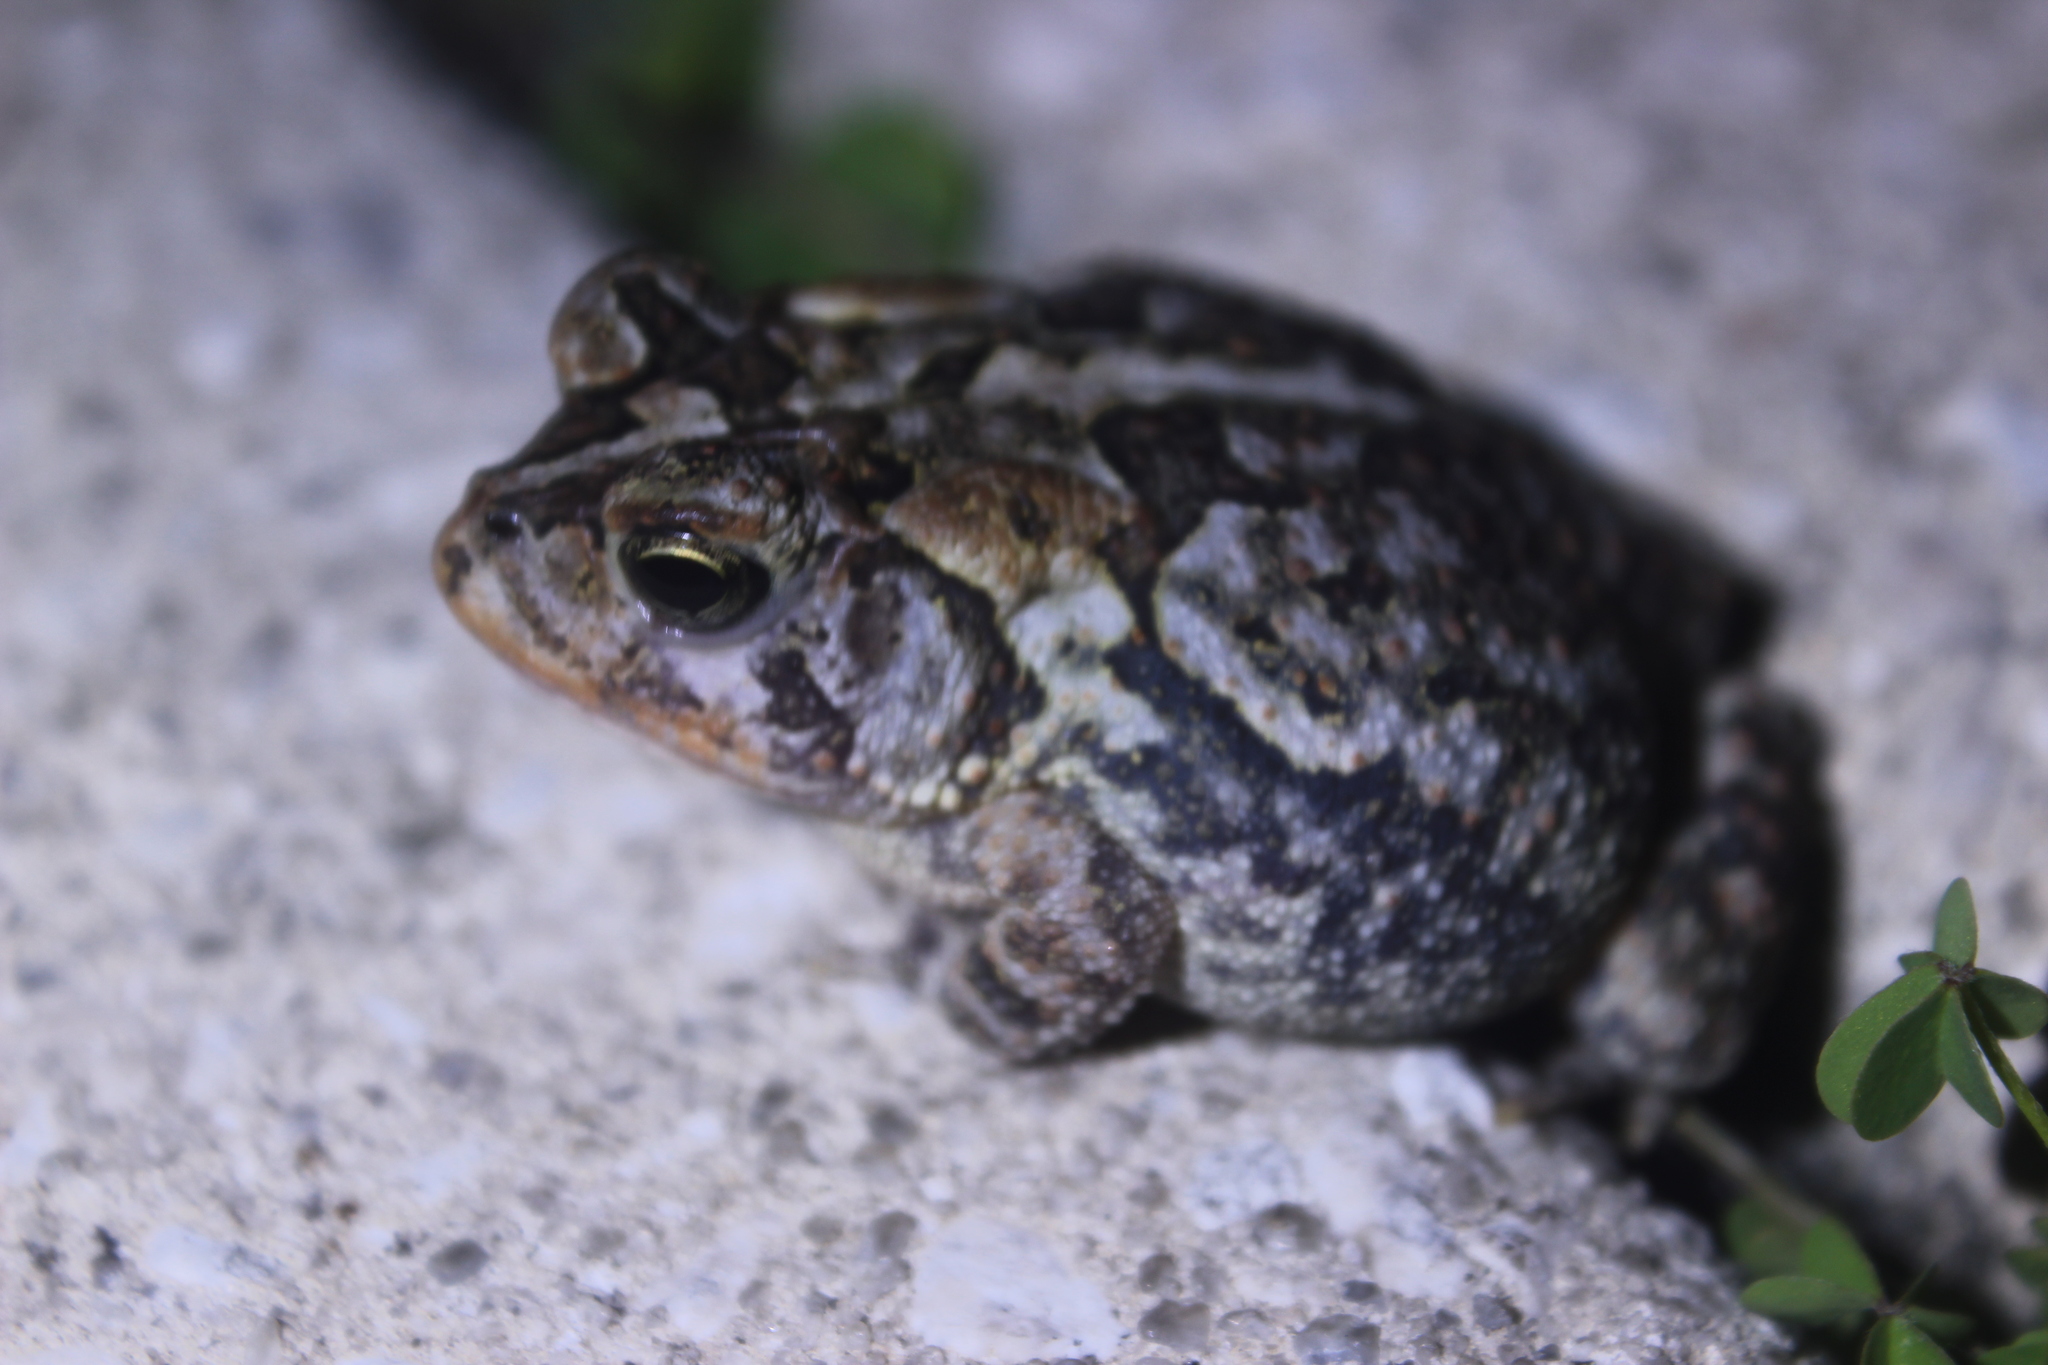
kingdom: Animalia
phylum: Chordata
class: Amphibia
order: Anura
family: Bufonidae
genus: Anaxyrus
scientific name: Anaxyrus terrestris
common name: Southern toad
